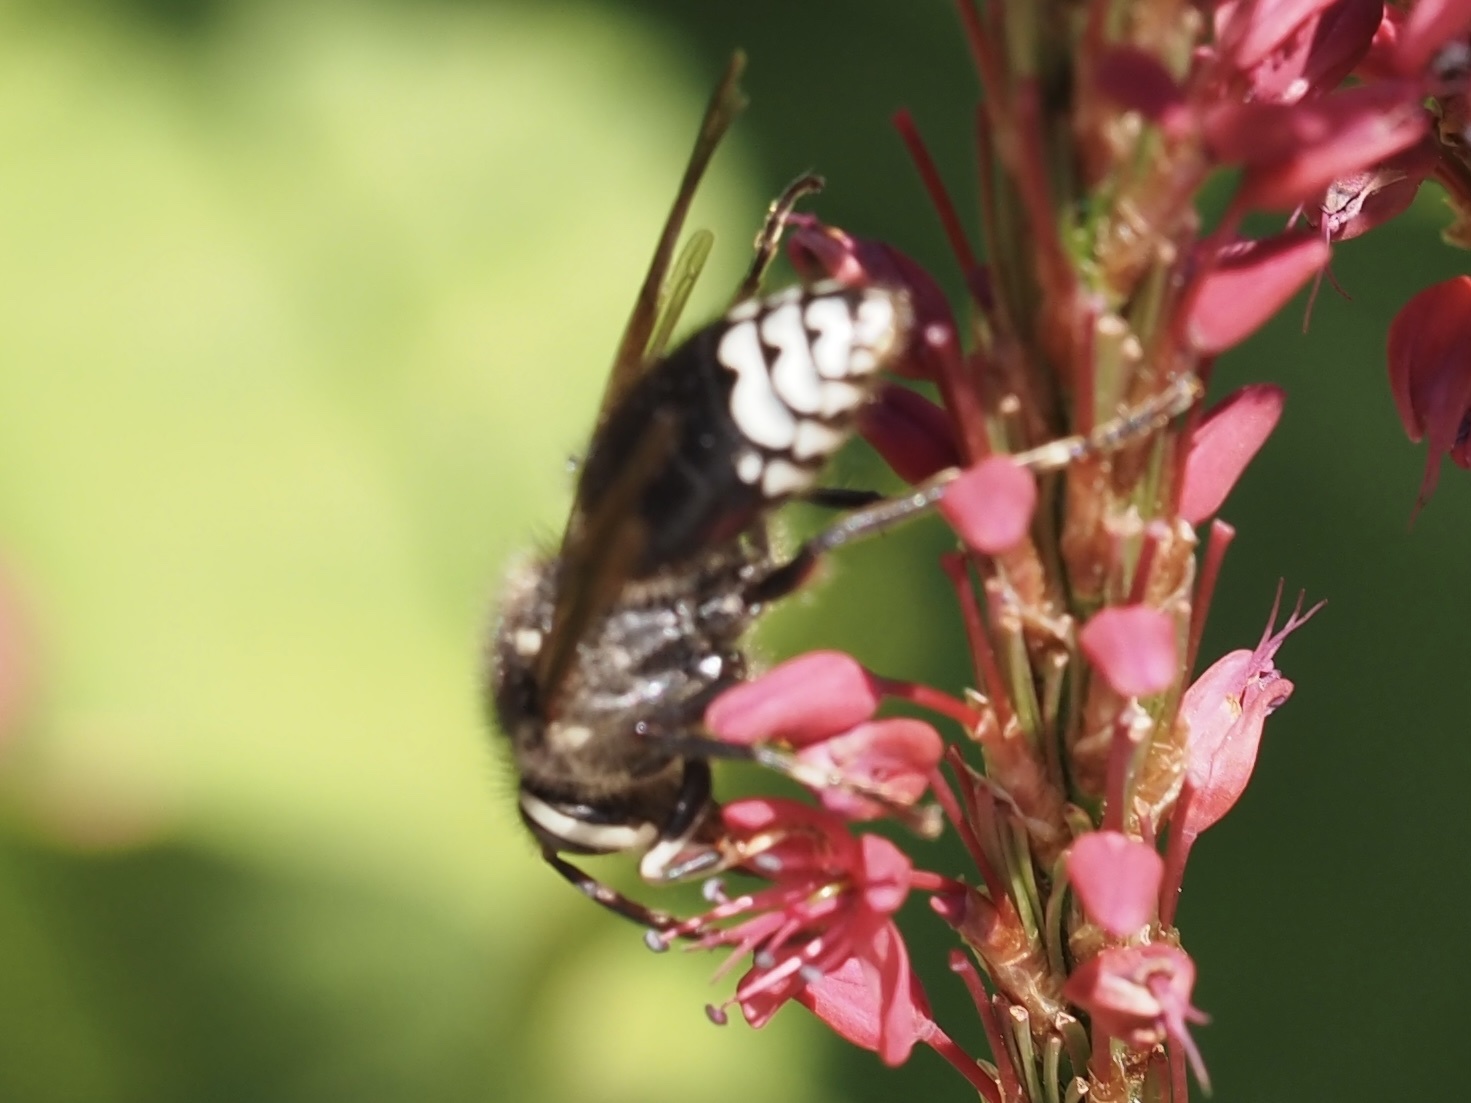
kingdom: Animalia
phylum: Arthropoda
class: Insecta
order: Hymenoptera
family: Vespidae
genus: Dolichovespula
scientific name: Dolichovespula maculata
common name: Bald-faced hornet
